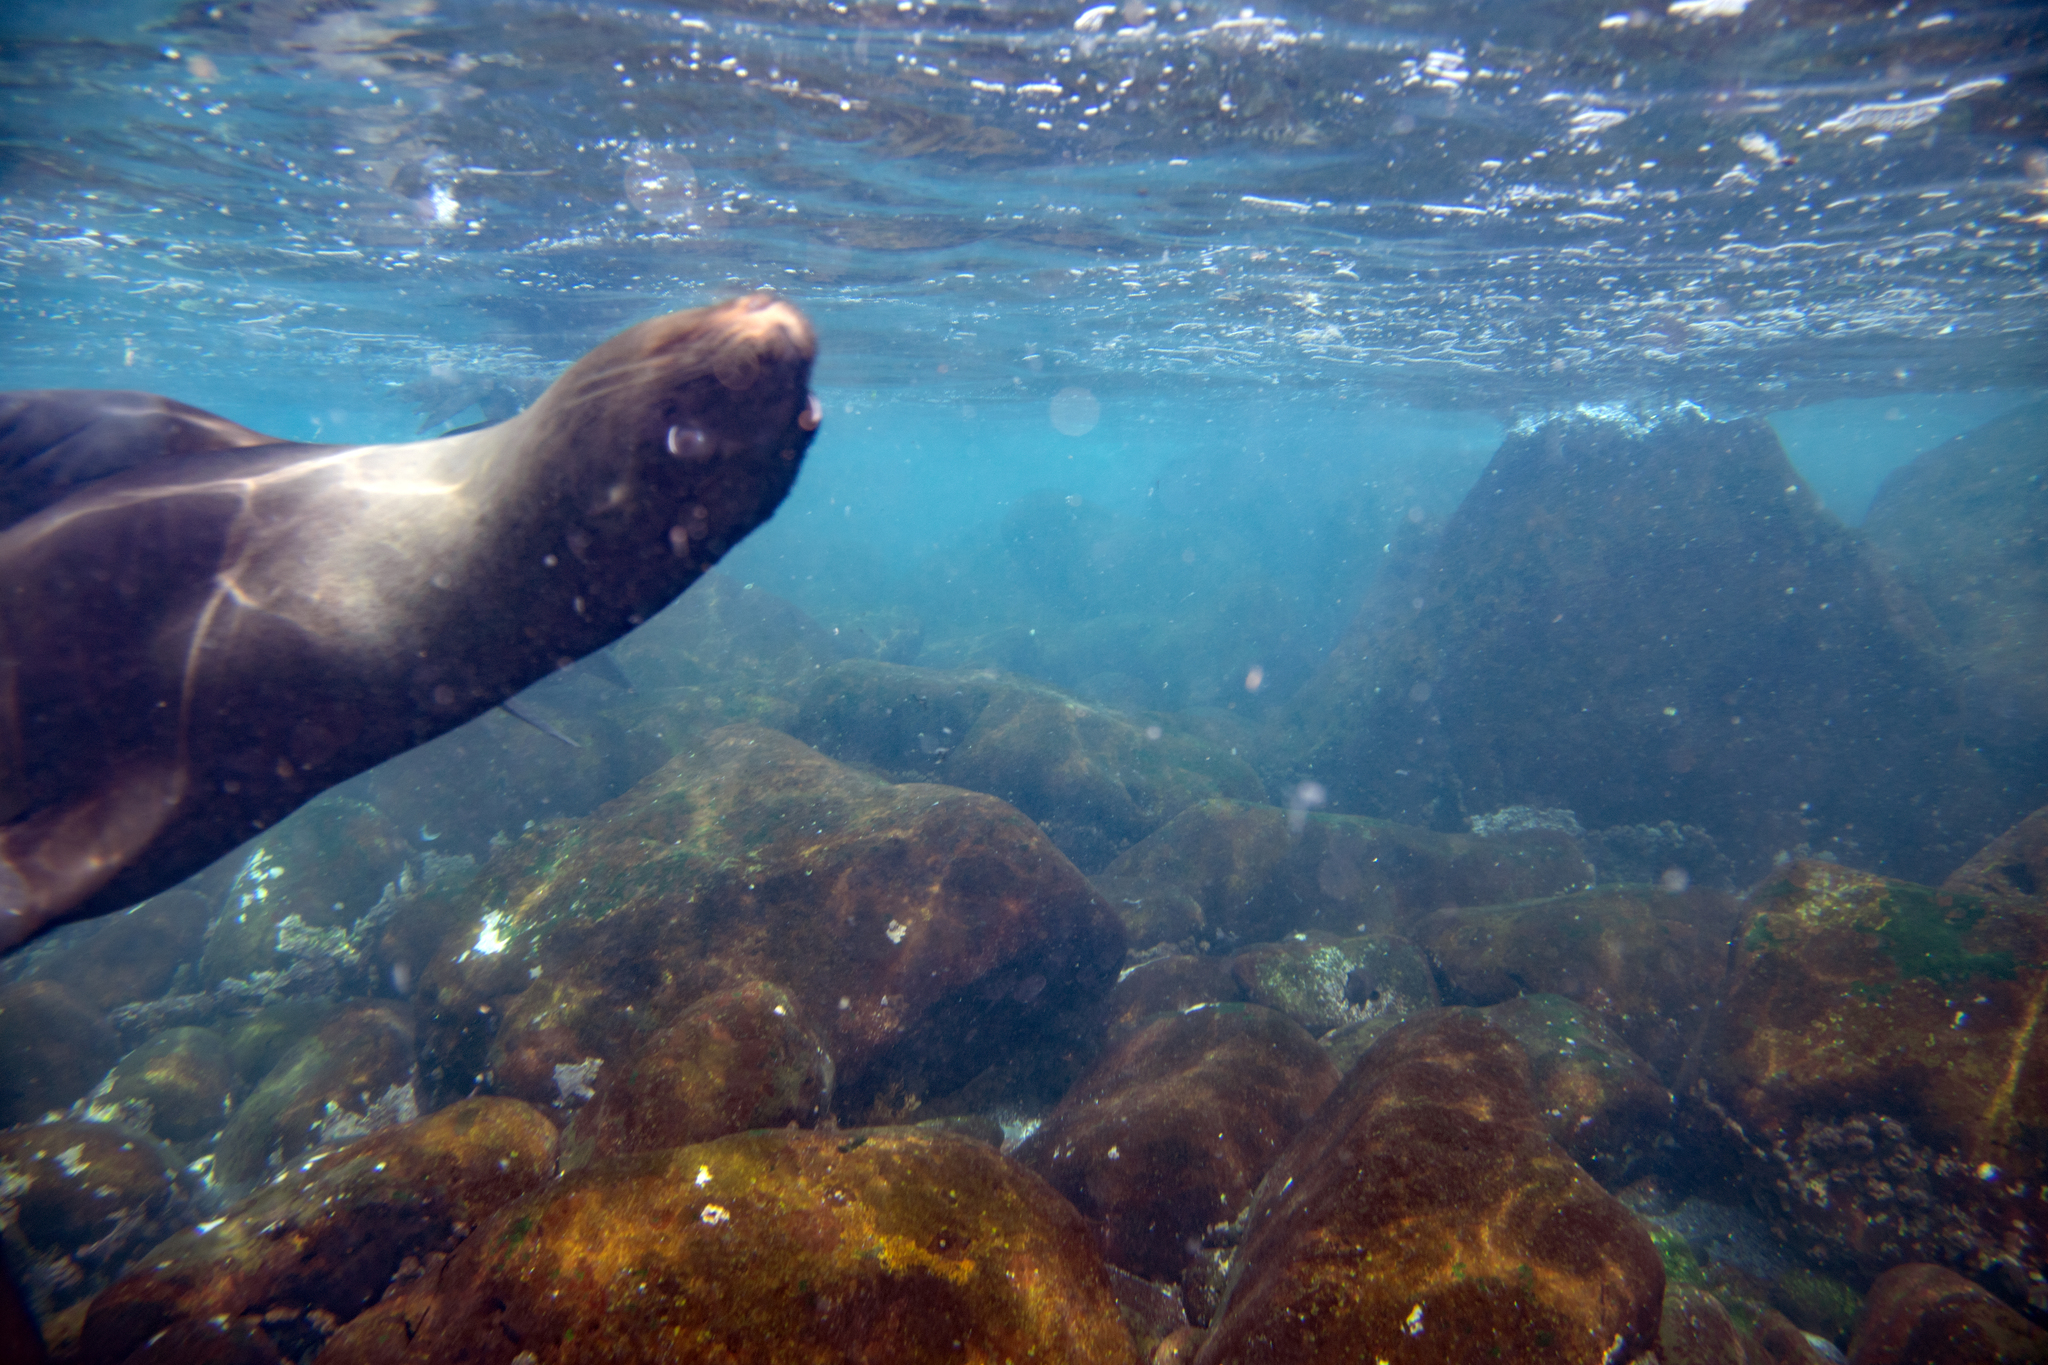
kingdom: Animalia
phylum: Chordata
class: Mammalia
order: Carnivora
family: Otariidae
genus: Zalophus
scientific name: Zalophus wollebaeki
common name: Galapagos sea lion
